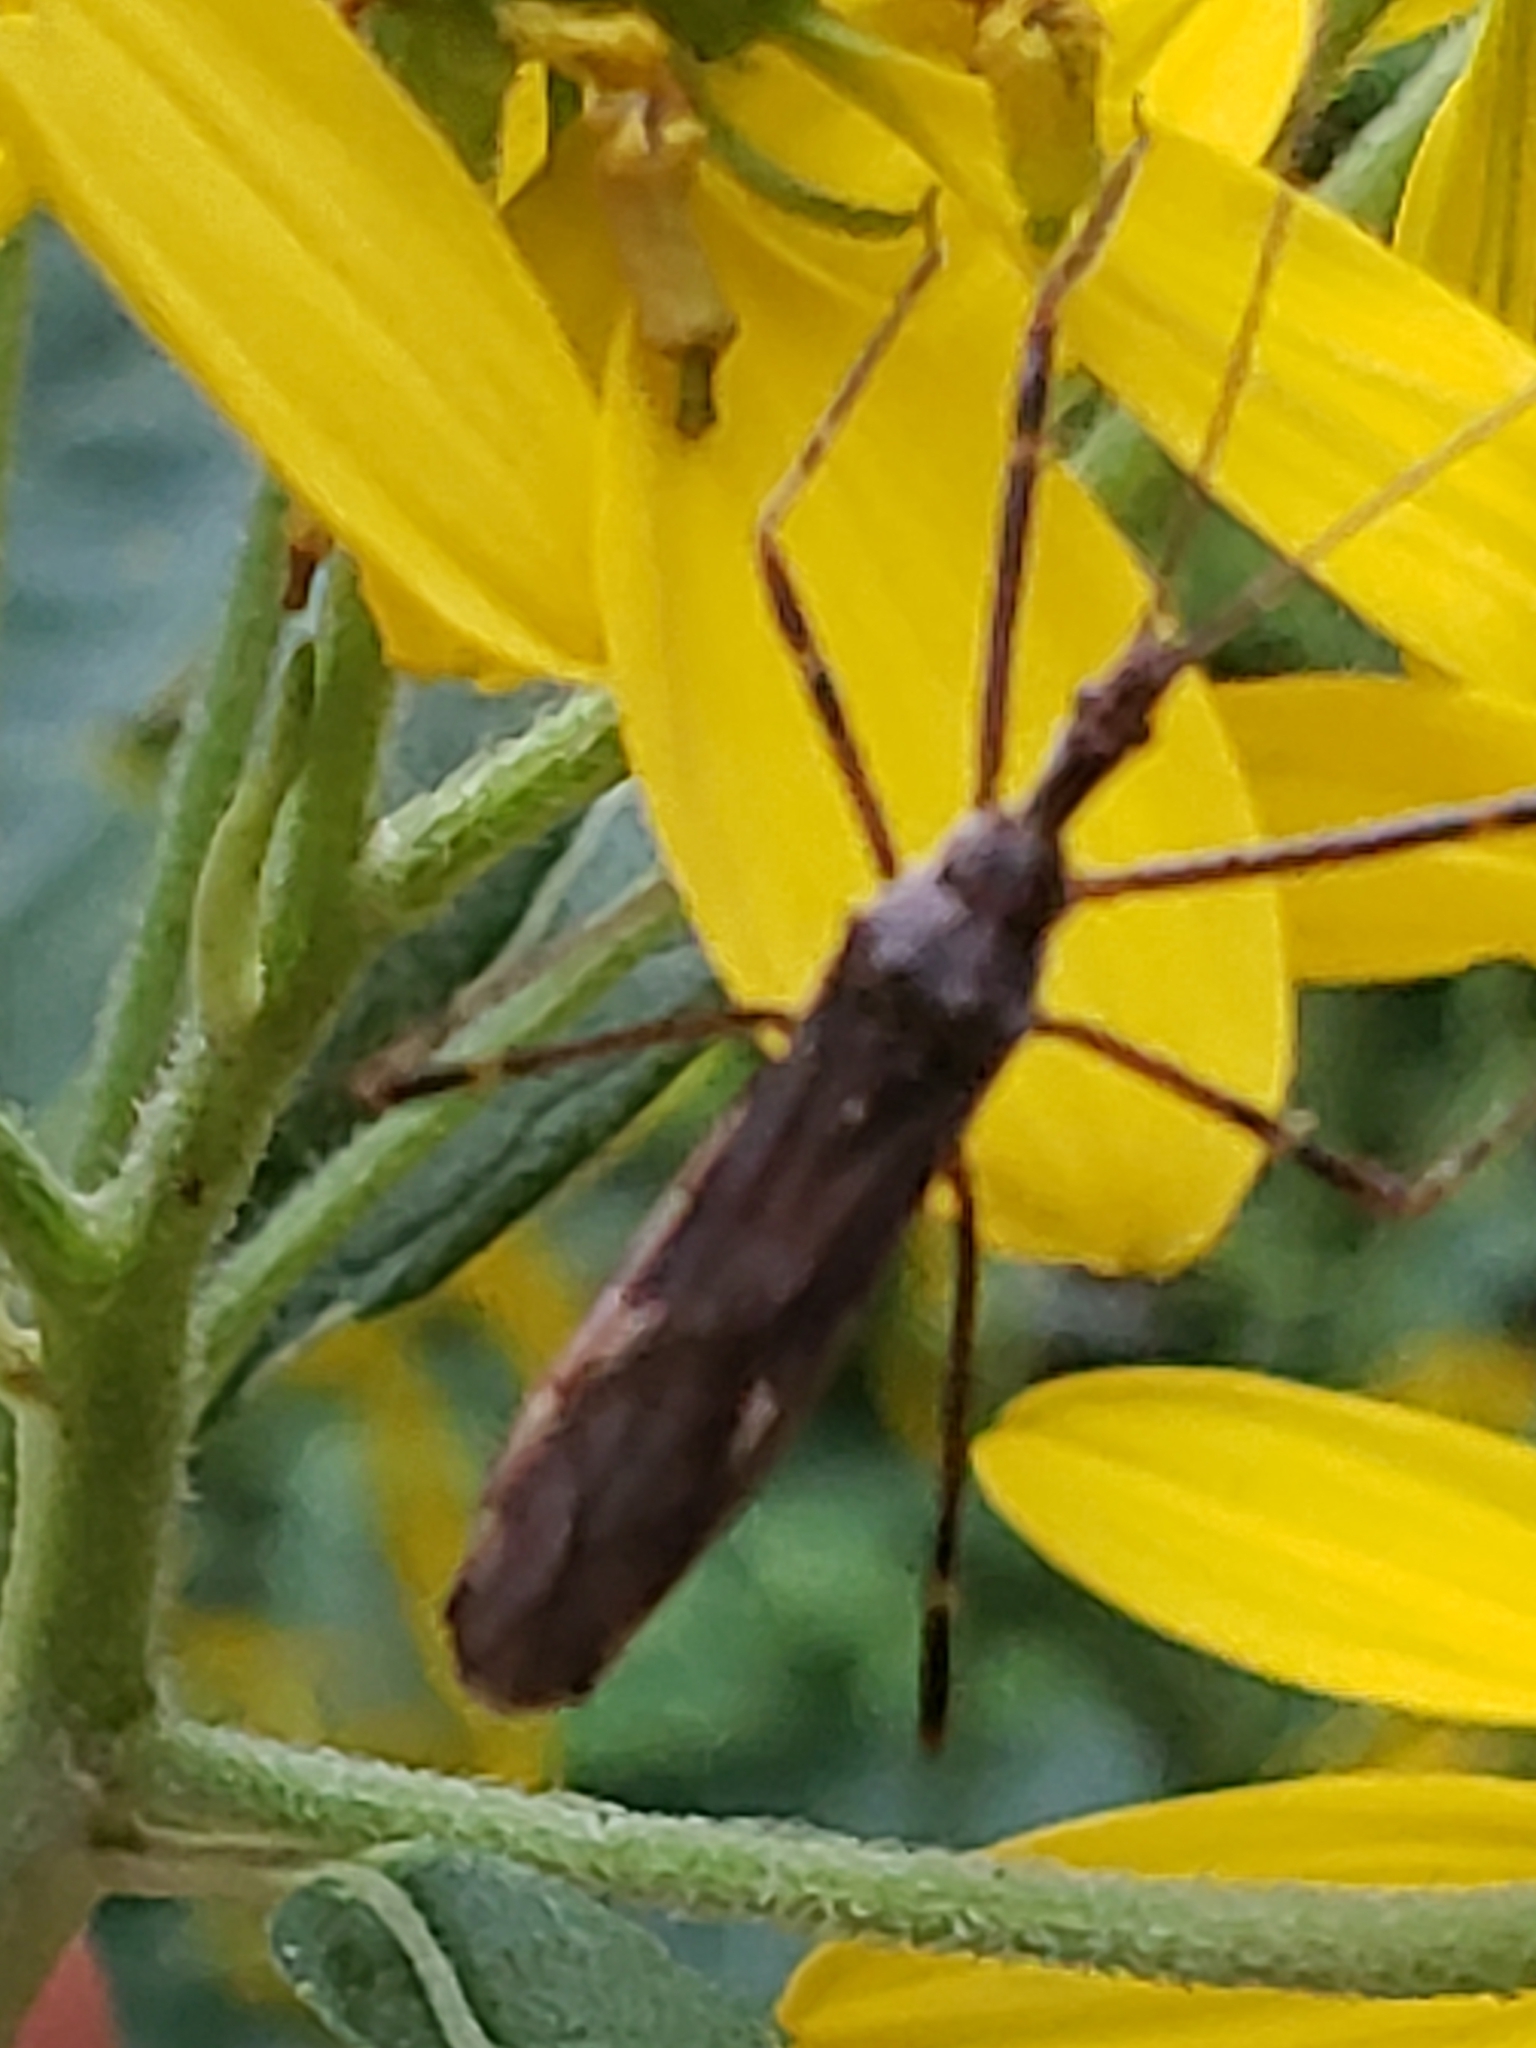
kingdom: Animalia
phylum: Arthropoda
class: Insecta
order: Hemiptera
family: Reduviidae
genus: Zelus
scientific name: Zelus tetracanthus
